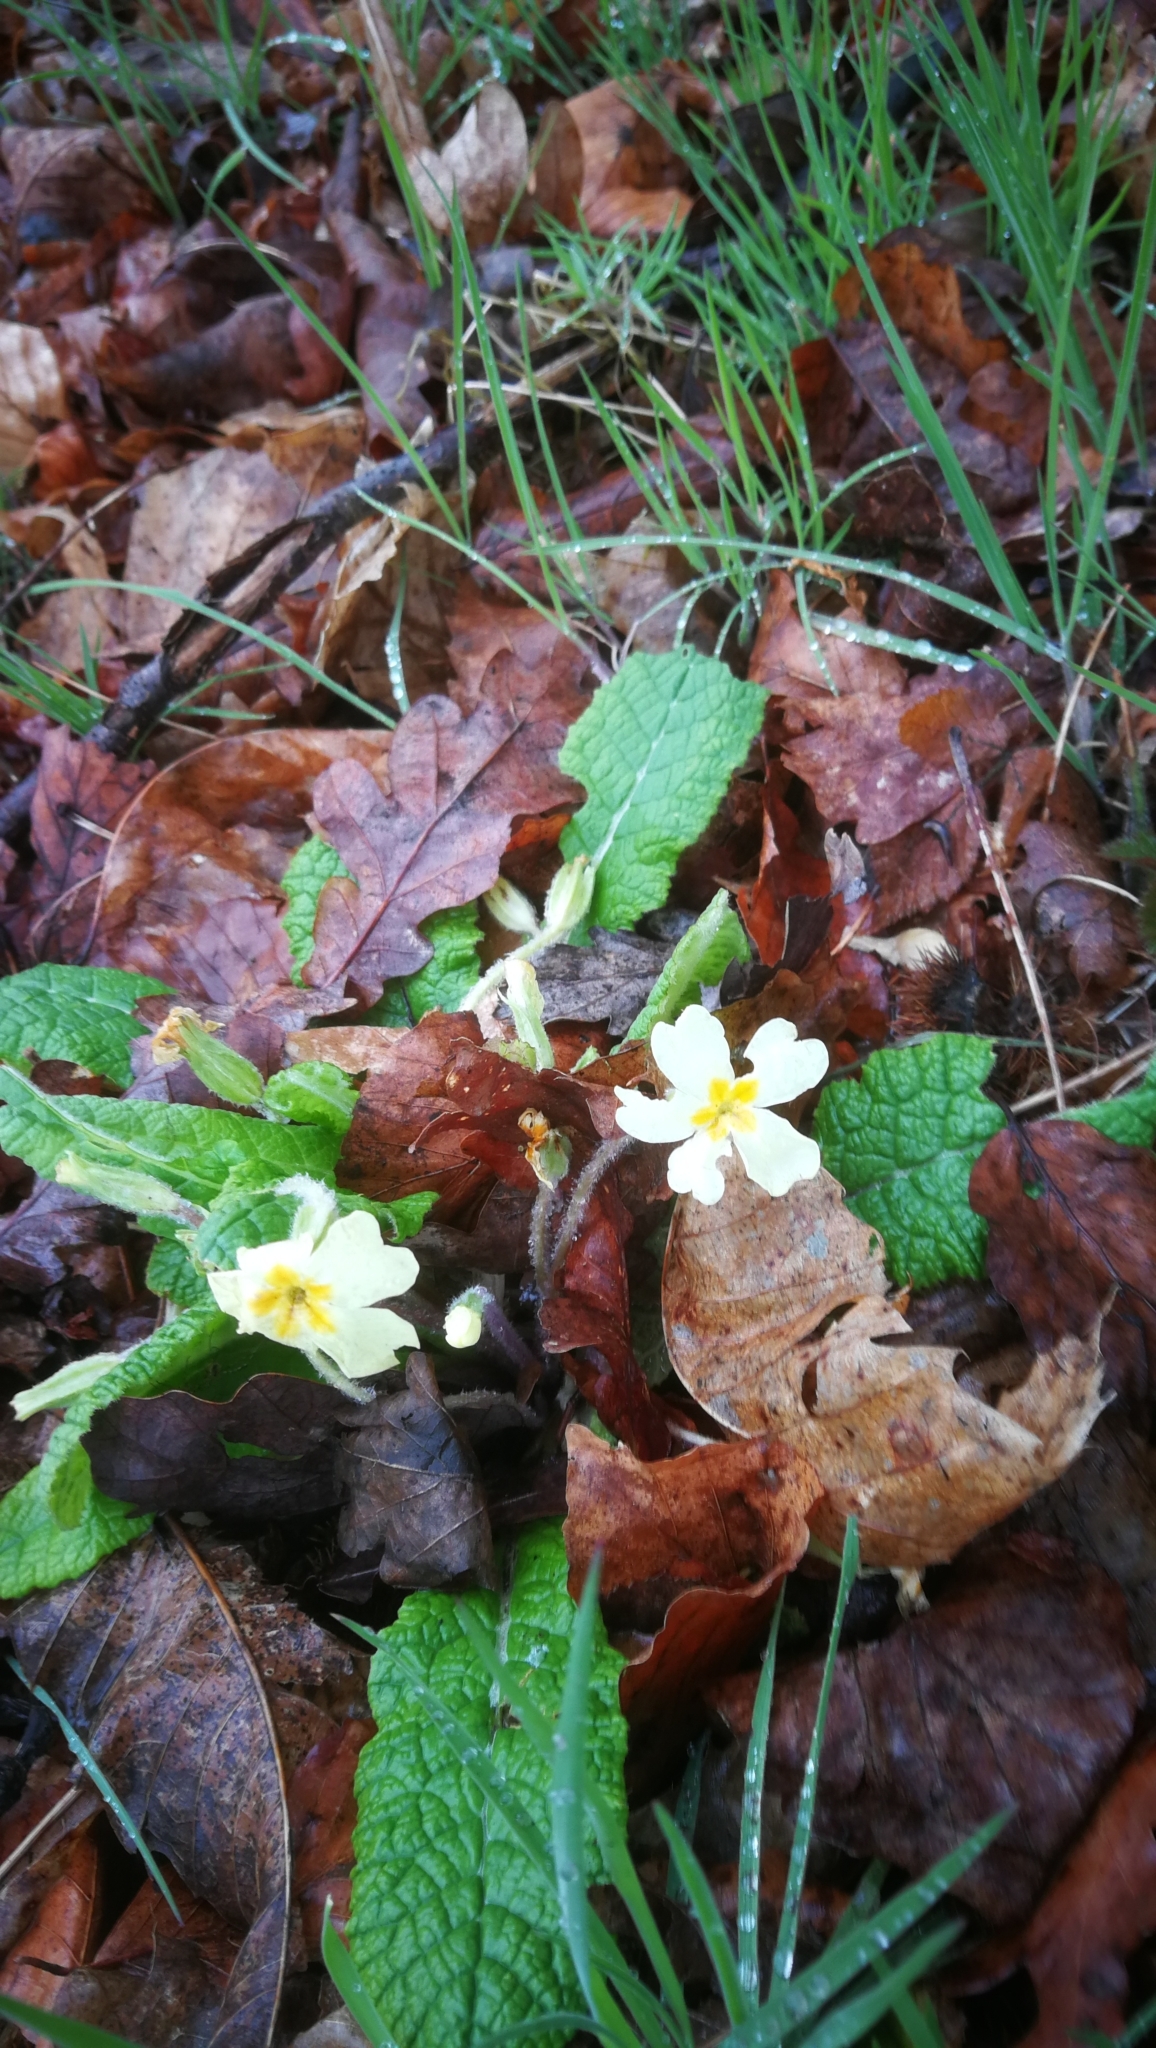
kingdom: Plantae
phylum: Tracheophyta
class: Magnoliopsida
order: Ericales
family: Primulaceae
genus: Primula
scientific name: Primula vulgaris
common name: Primrose
